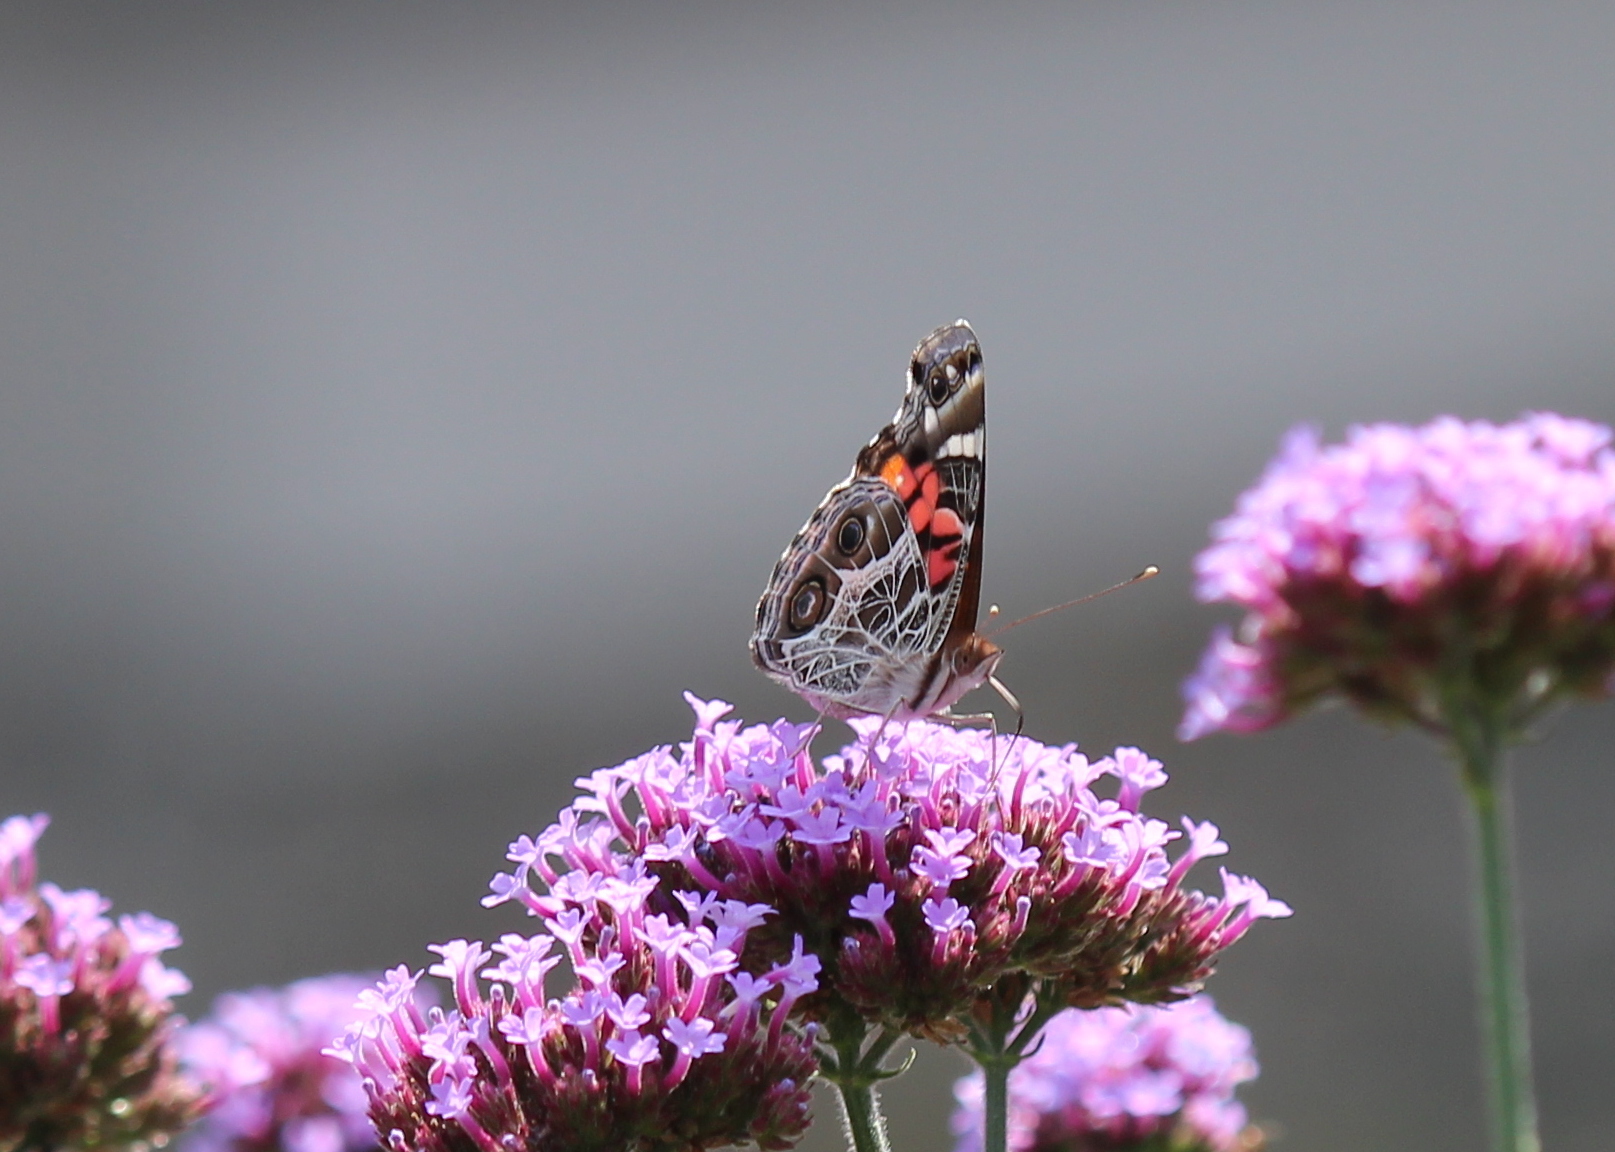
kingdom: Animalia
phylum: Arthropoda
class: Insecta
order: Lepidoptera
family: Nymphalidae
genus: Vanessa
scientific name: Vanessa virginiensis
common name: American lady
